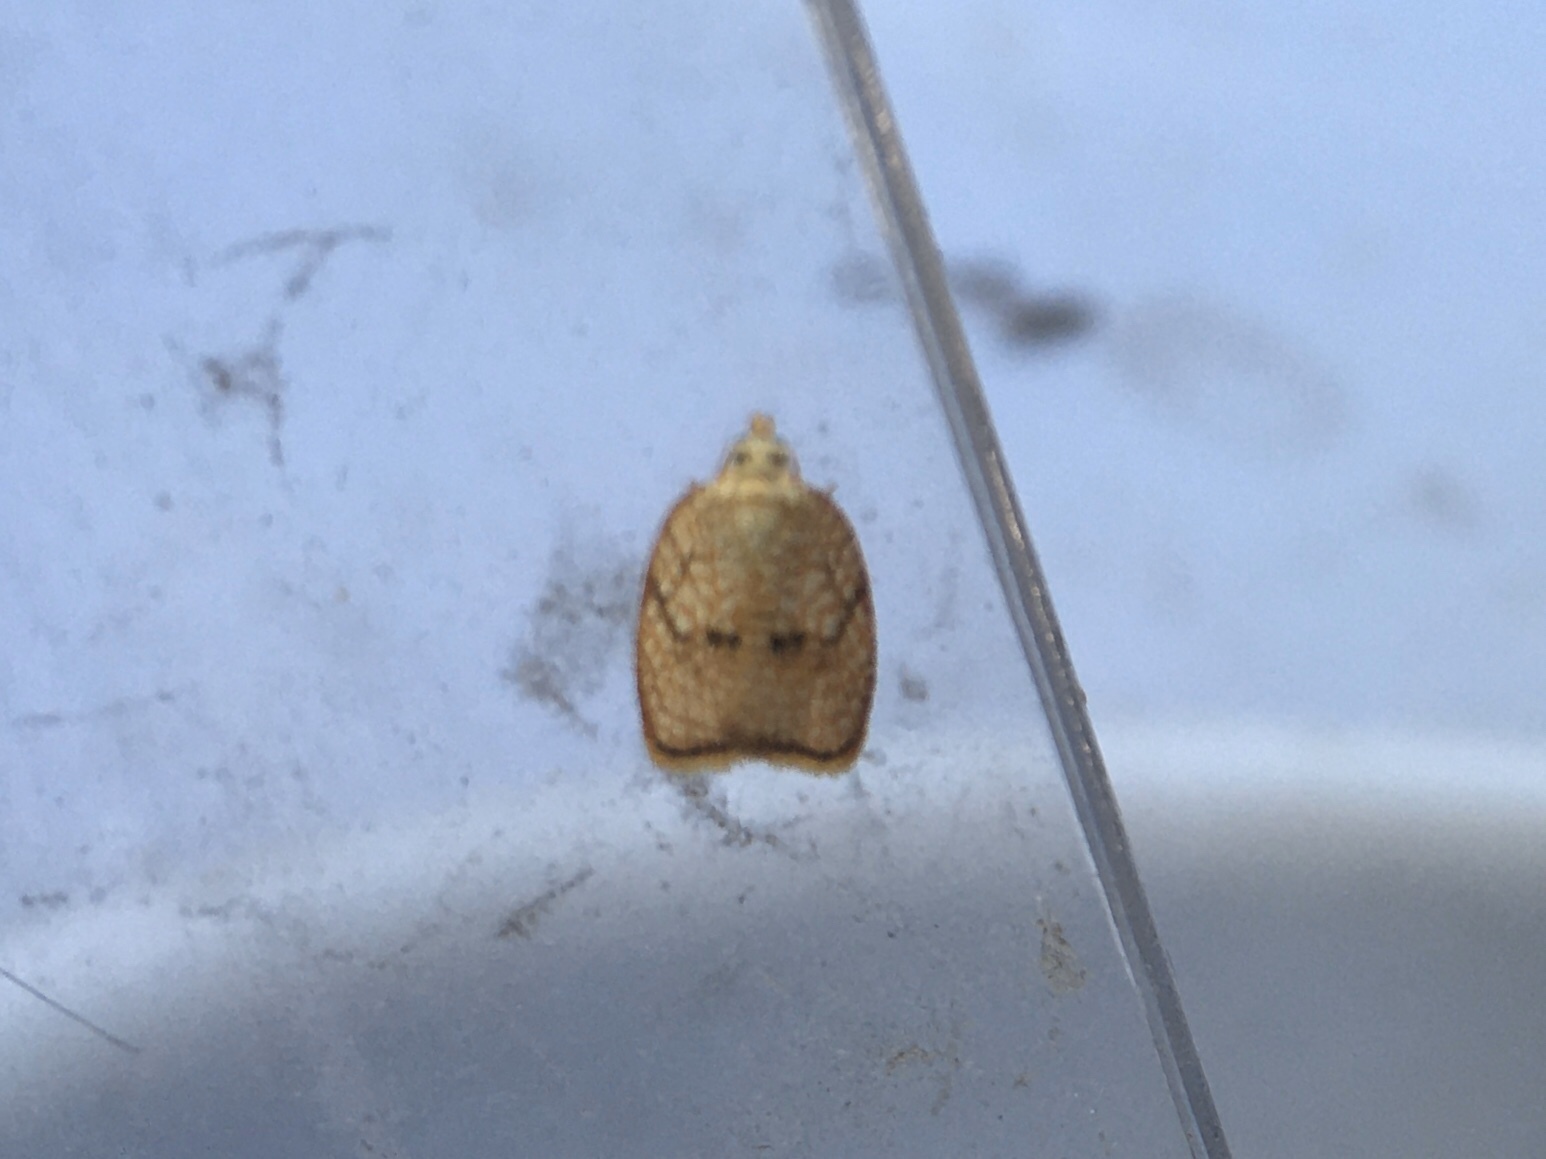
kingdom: Animalia
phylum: Arthropoda
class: Insecta
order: Lepidoptera
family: Tortricidae
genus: Acleris
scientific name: Acleris forsskaleana
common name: Maple button
